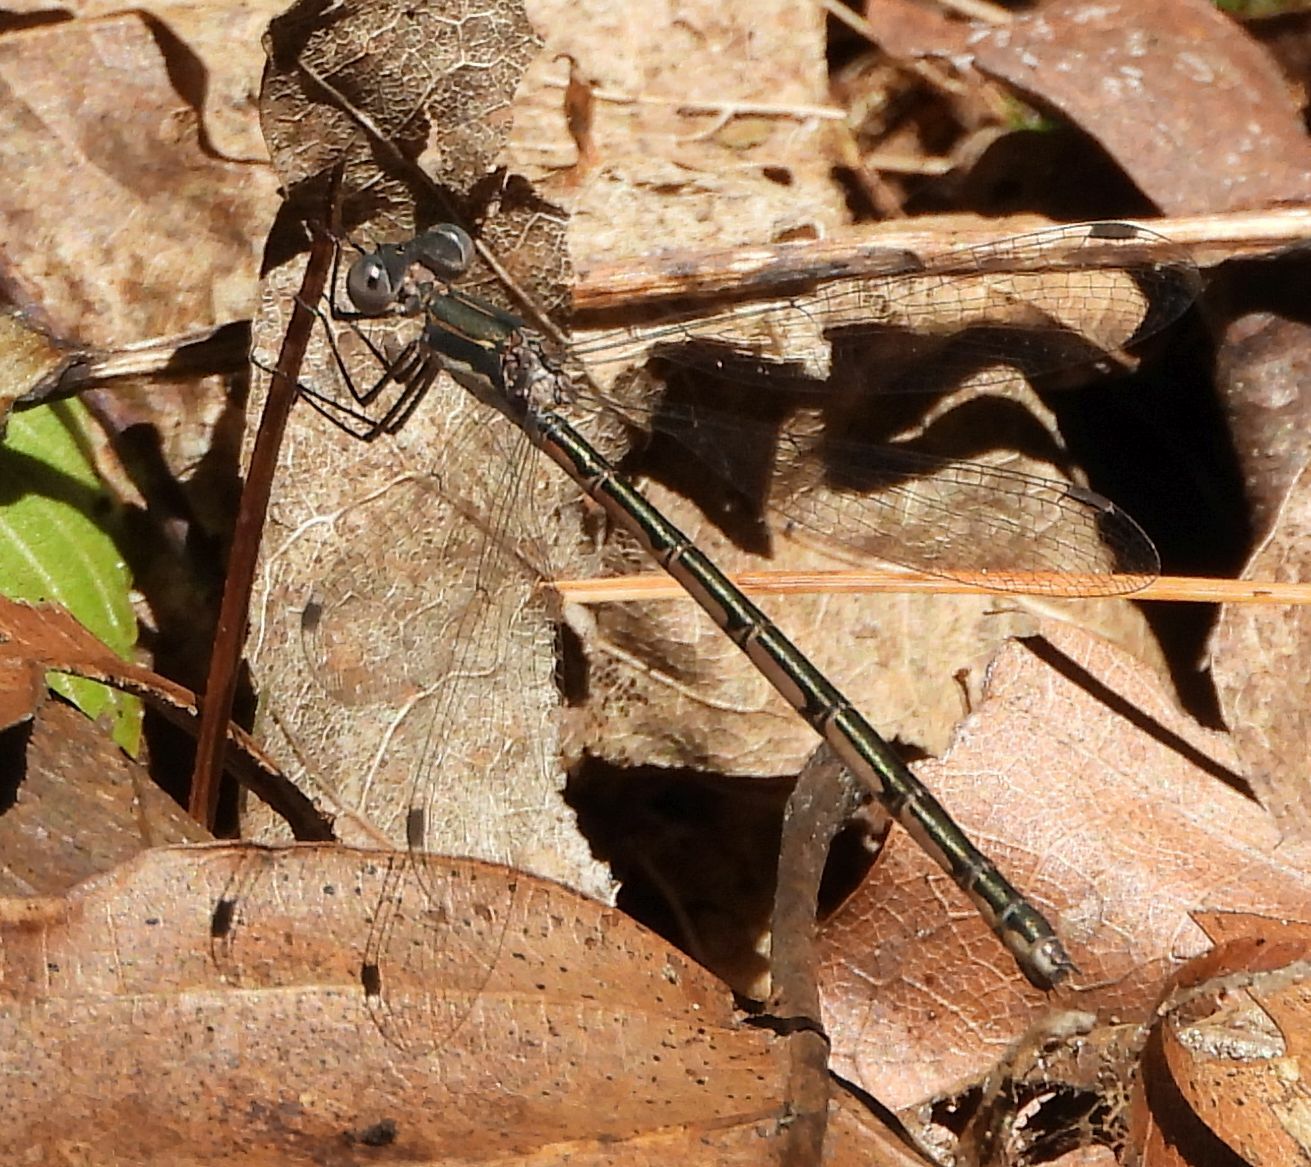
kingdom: Animalia
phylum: Arthropoda
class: Insecta
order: Odonata
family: Lestidae
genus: Lestes
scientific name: Lestes congener
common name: Spotted spreadwing
